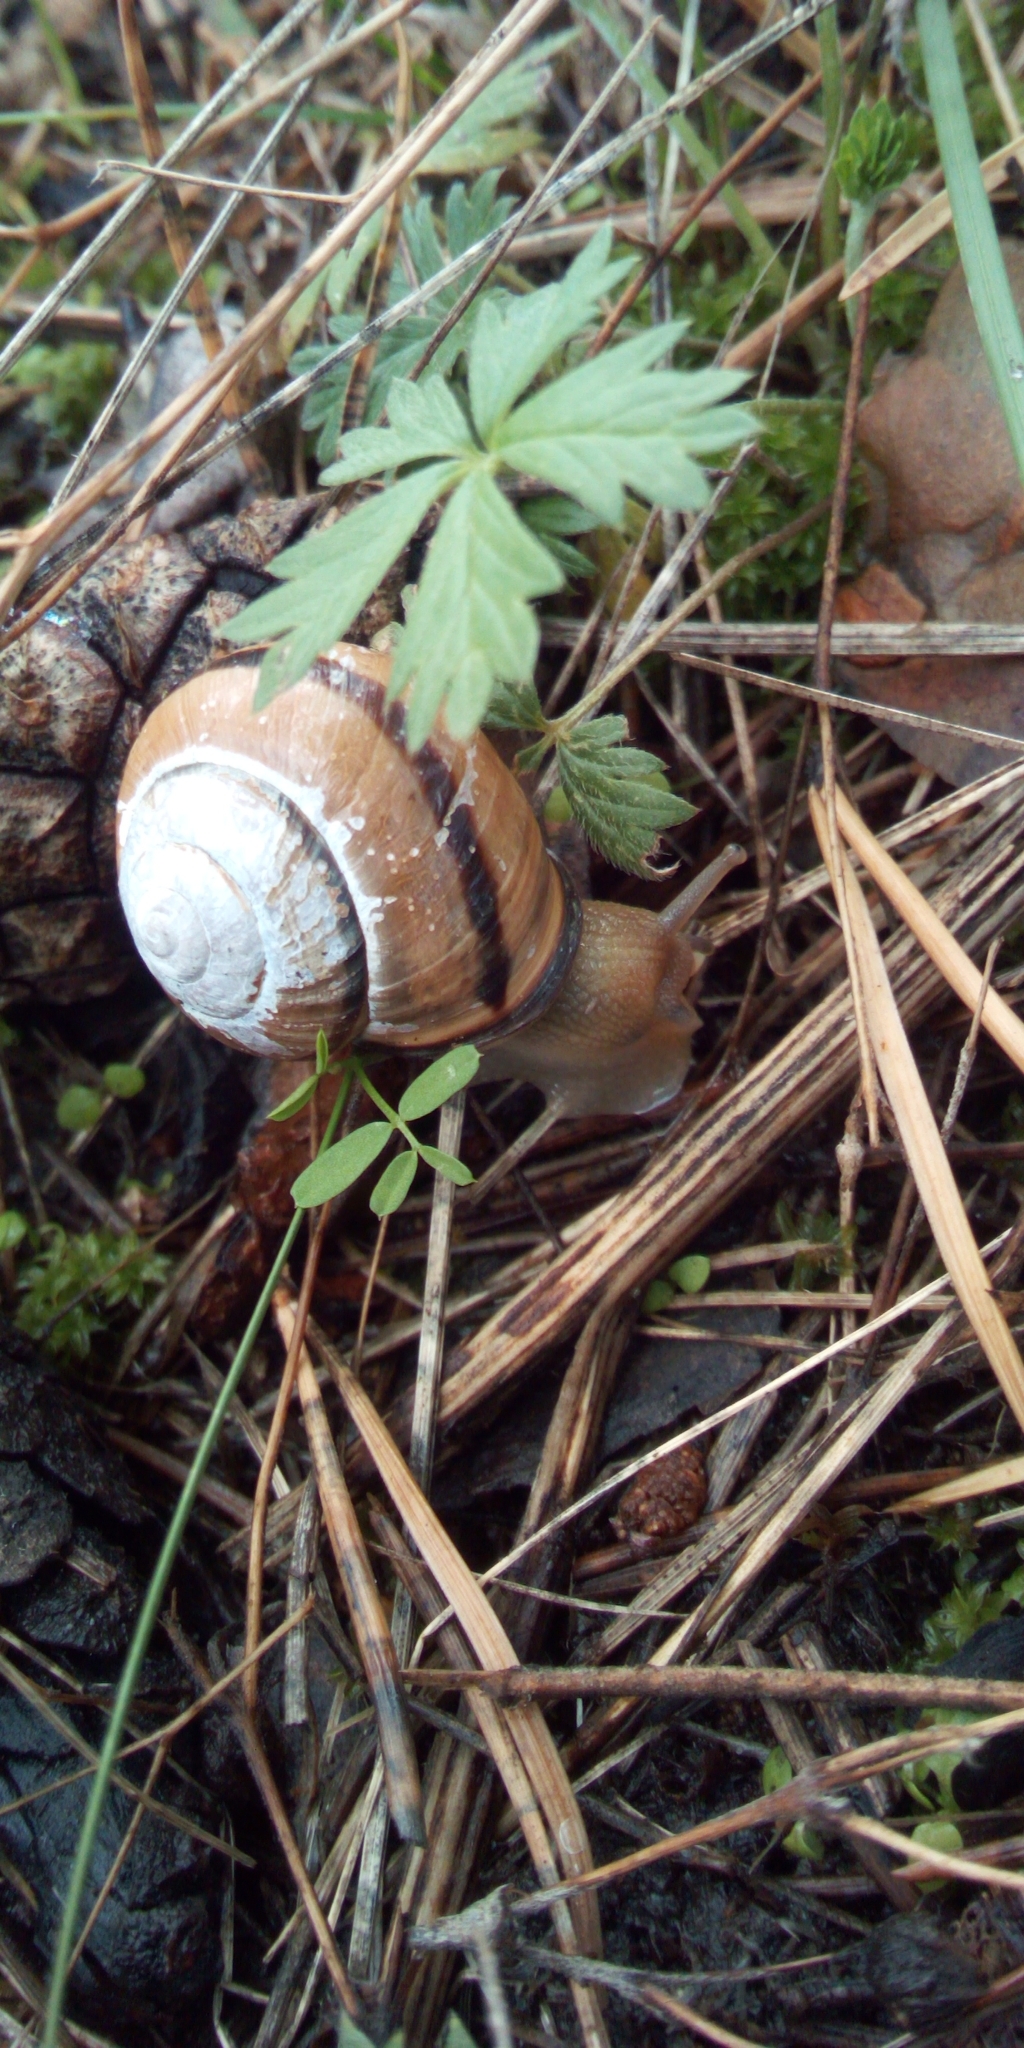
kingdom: Animalia
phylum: Mollusca
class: Gastropoda
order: Stylommatophora
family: Helicidae
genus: Cepaea
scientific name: Cepaea nemoralis
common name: Grovesnail
